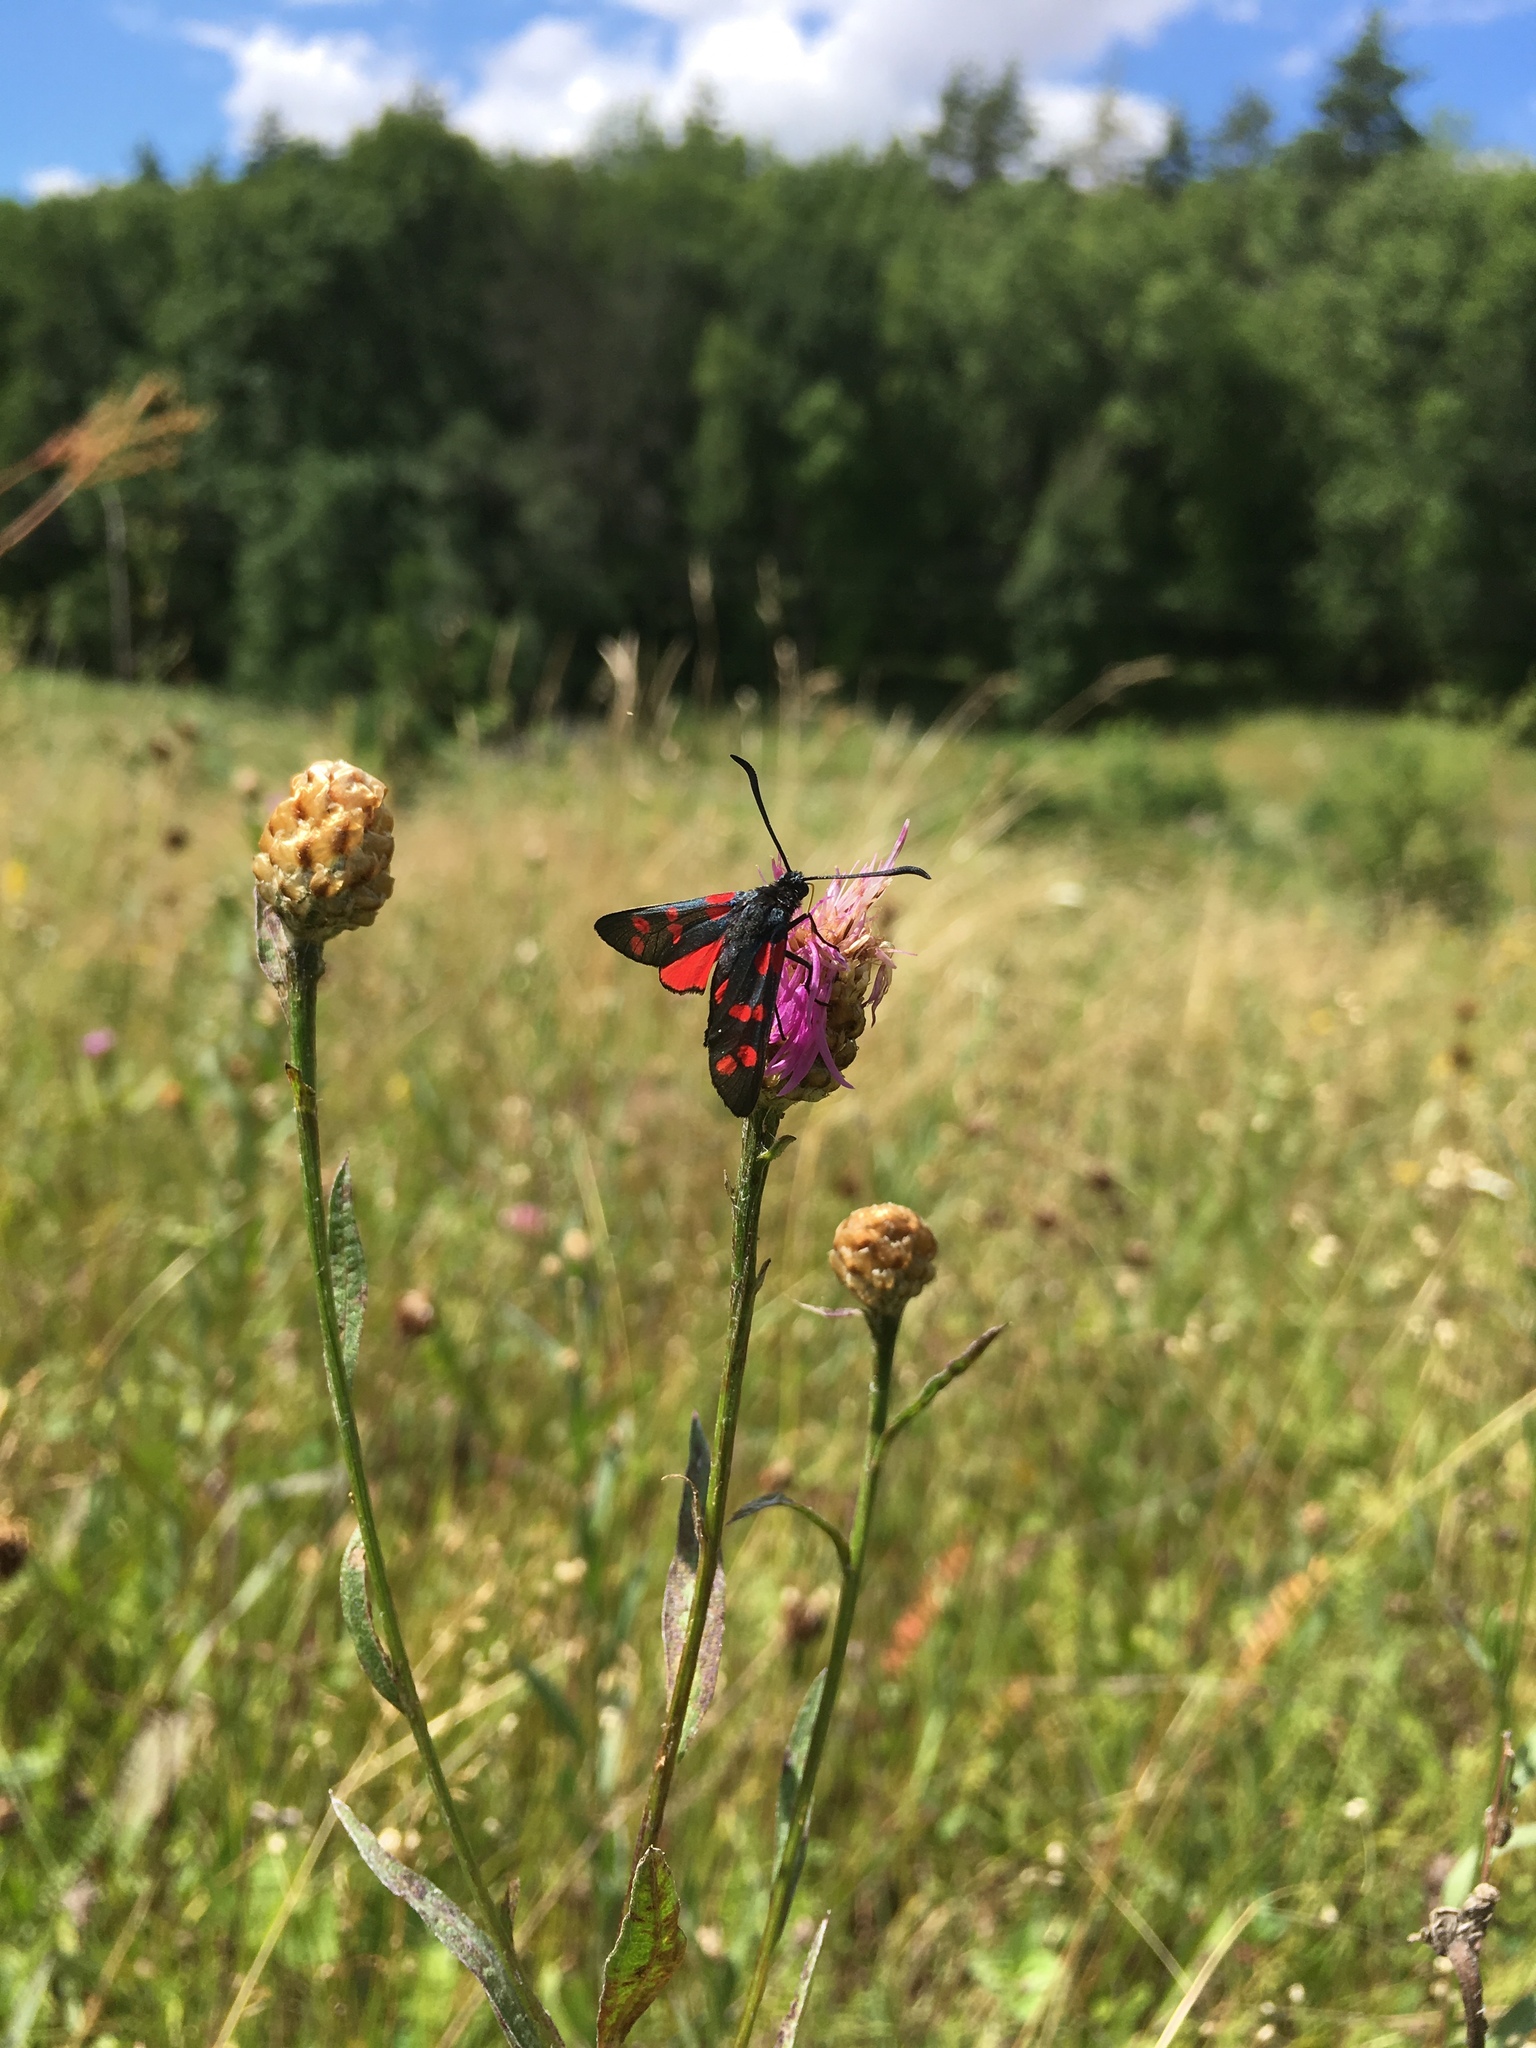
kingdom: Animalia
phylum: Arthropoda
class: Insecta
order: Lepidoptera
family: Zygaenidae
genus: Zygaena
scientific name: Zygaena filipendulae
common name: Six-spot burnet
